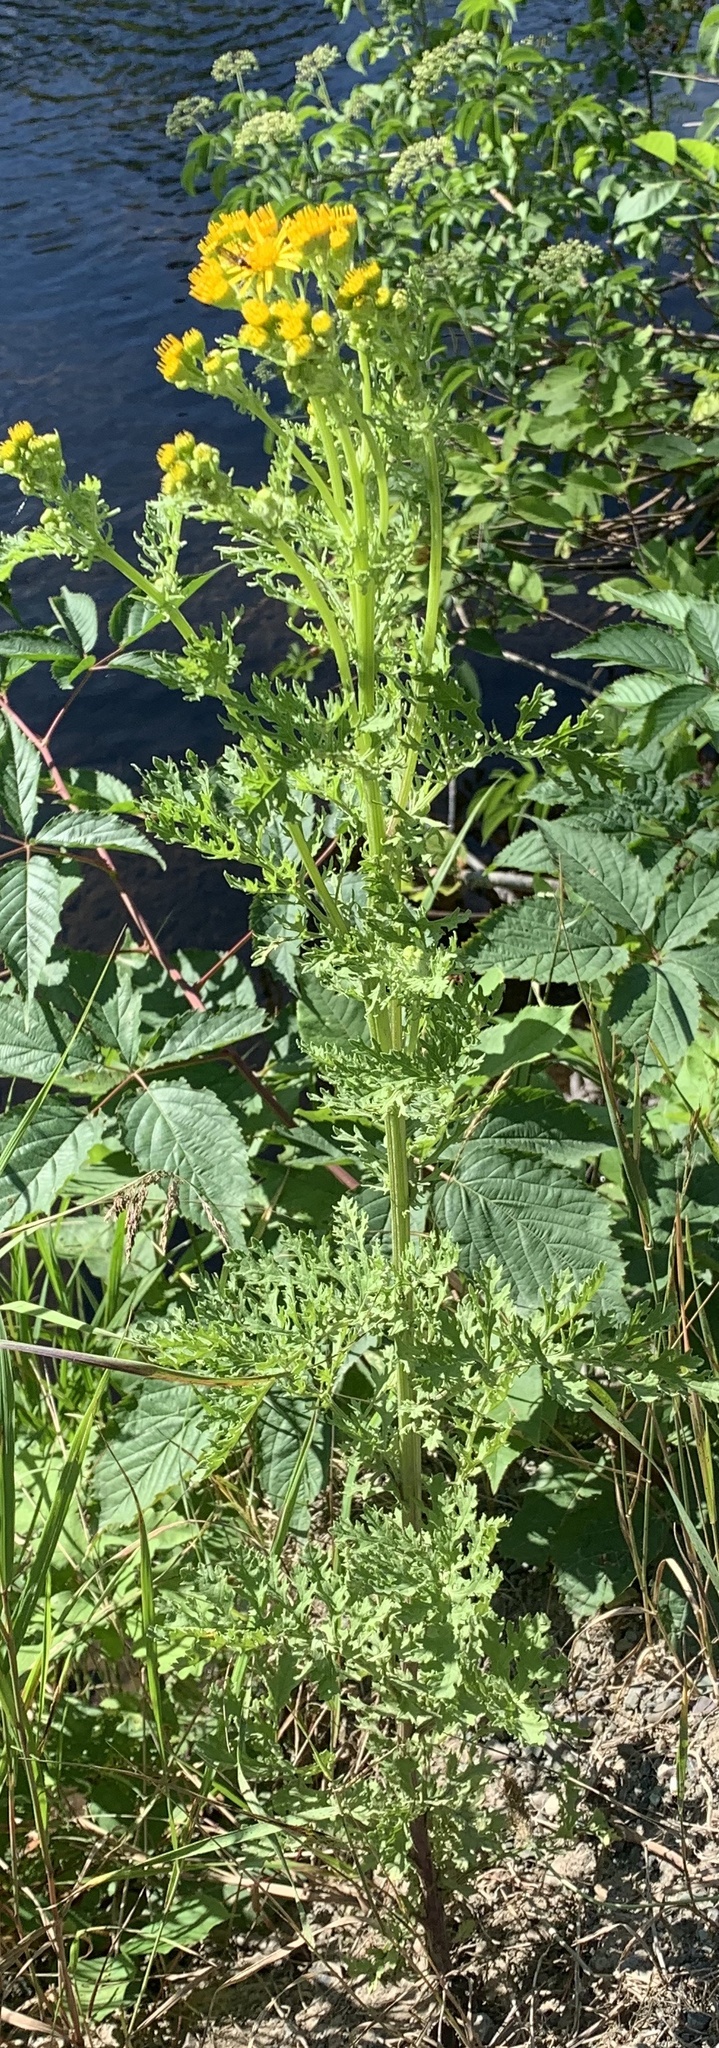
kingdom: Plantae
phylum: Tracheophyta
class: Magnoliopsida
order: Asterales
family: Asteraceae
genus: Jacobaea
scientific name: Jacobaea vulgaris
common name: Stinking willie
